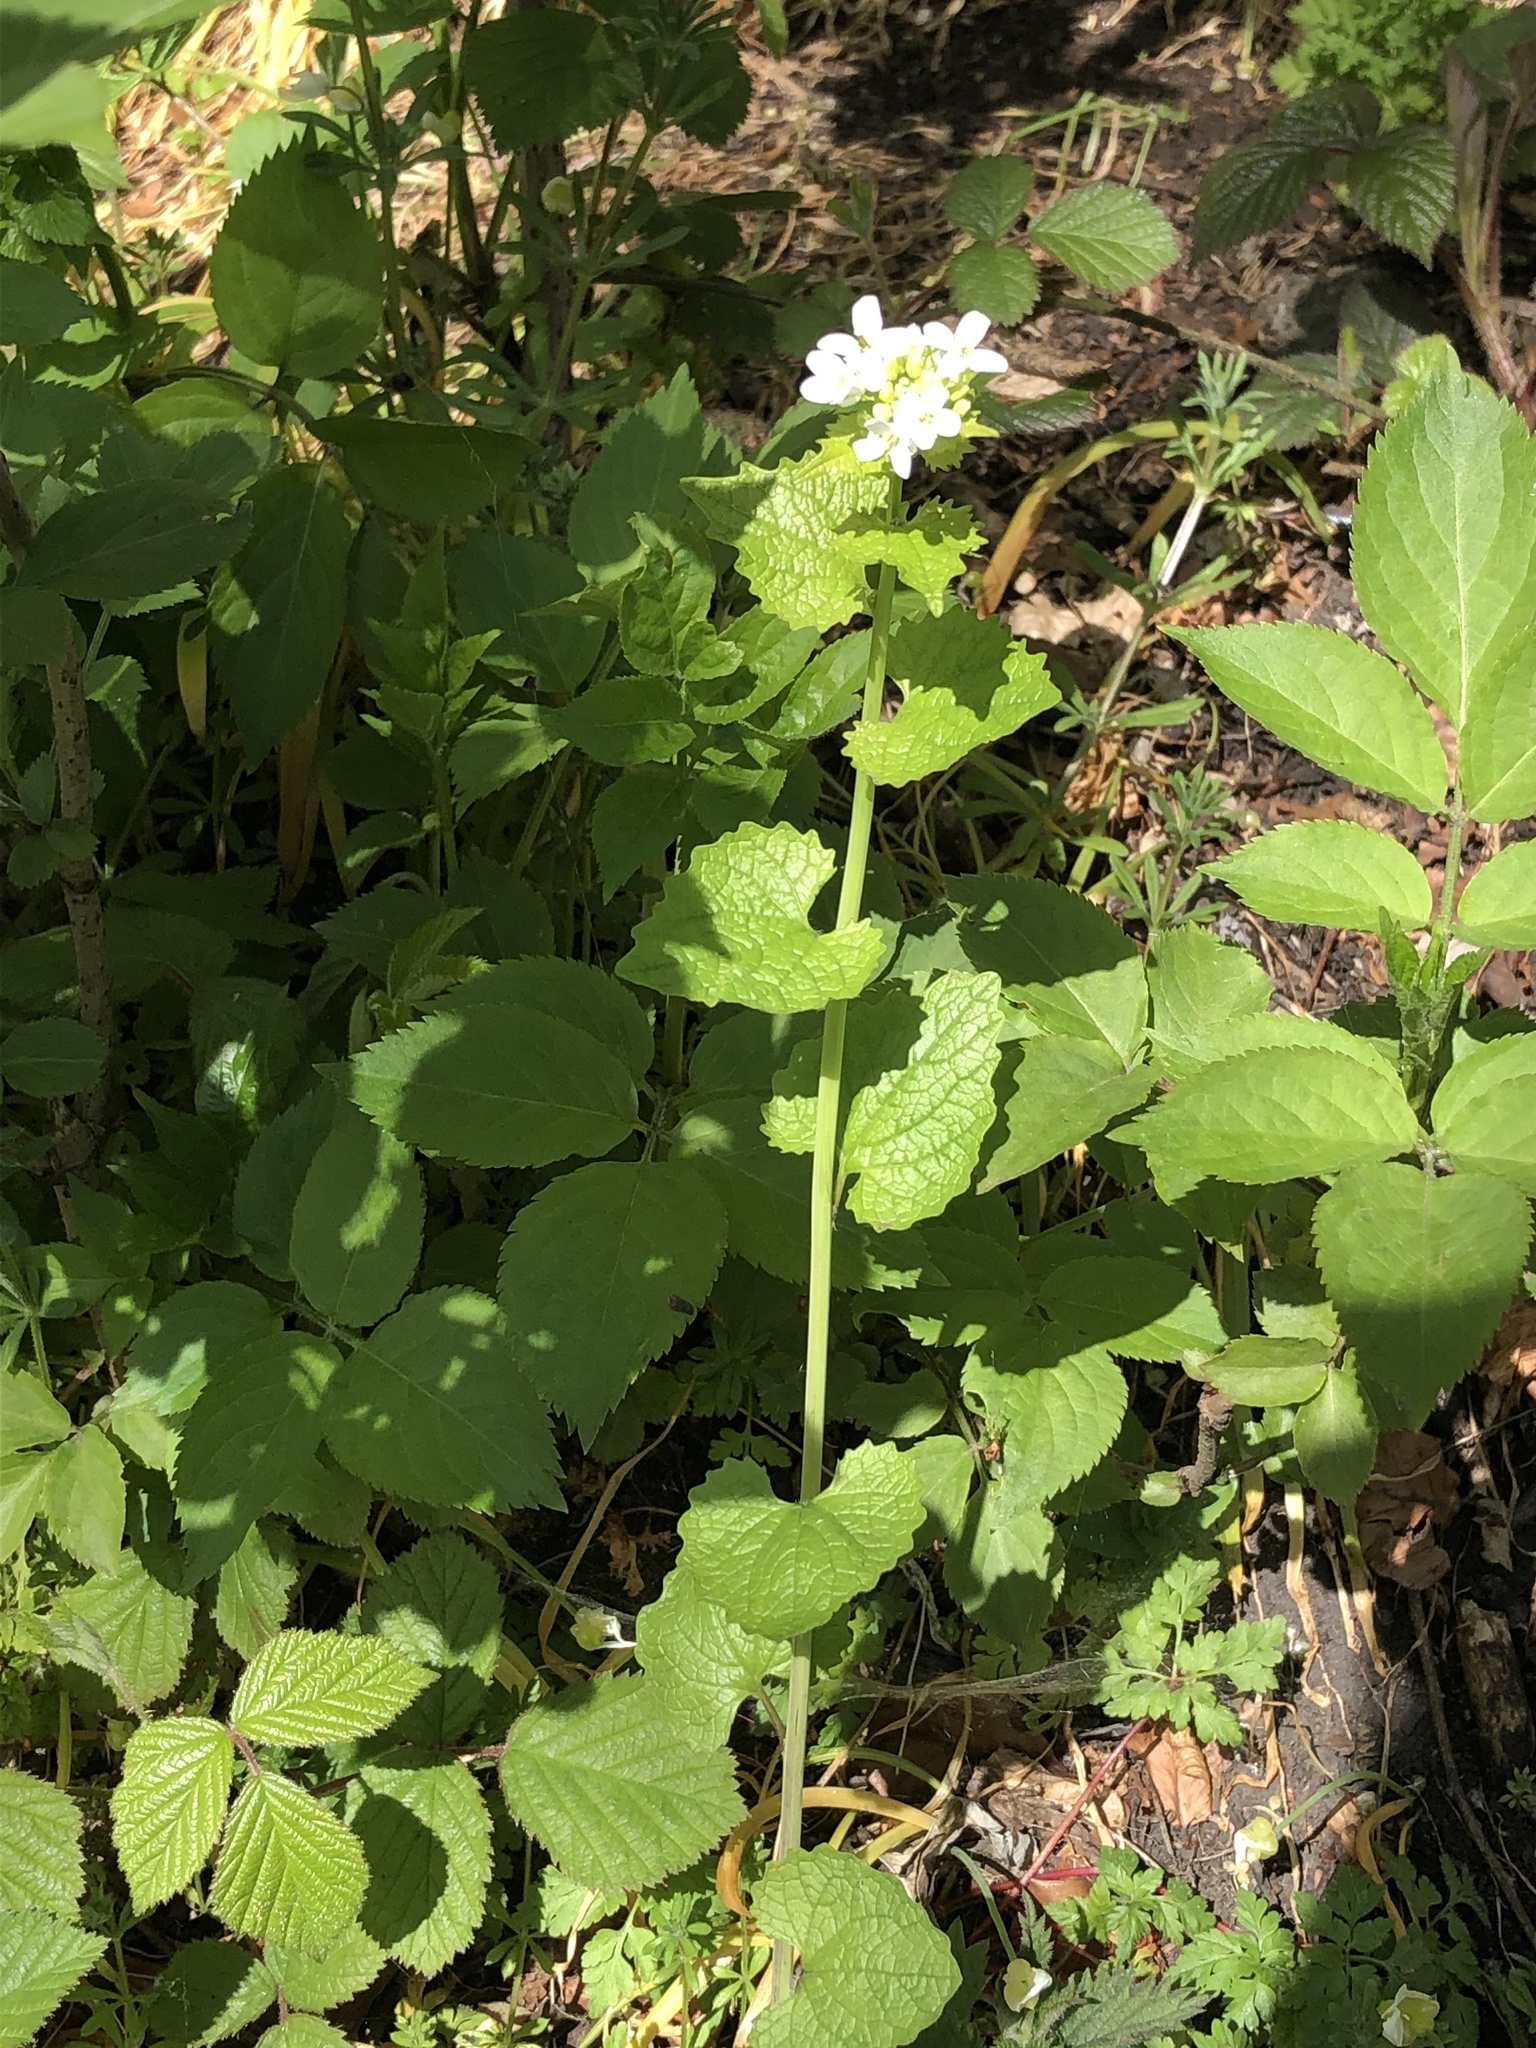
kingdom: Plantae
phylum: Tracheophyta
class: Magnoliopsida
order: Brassicales
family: Brassicaceae
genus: Alliaria
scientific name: Alliaria petiolata
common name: Garlic mustard
